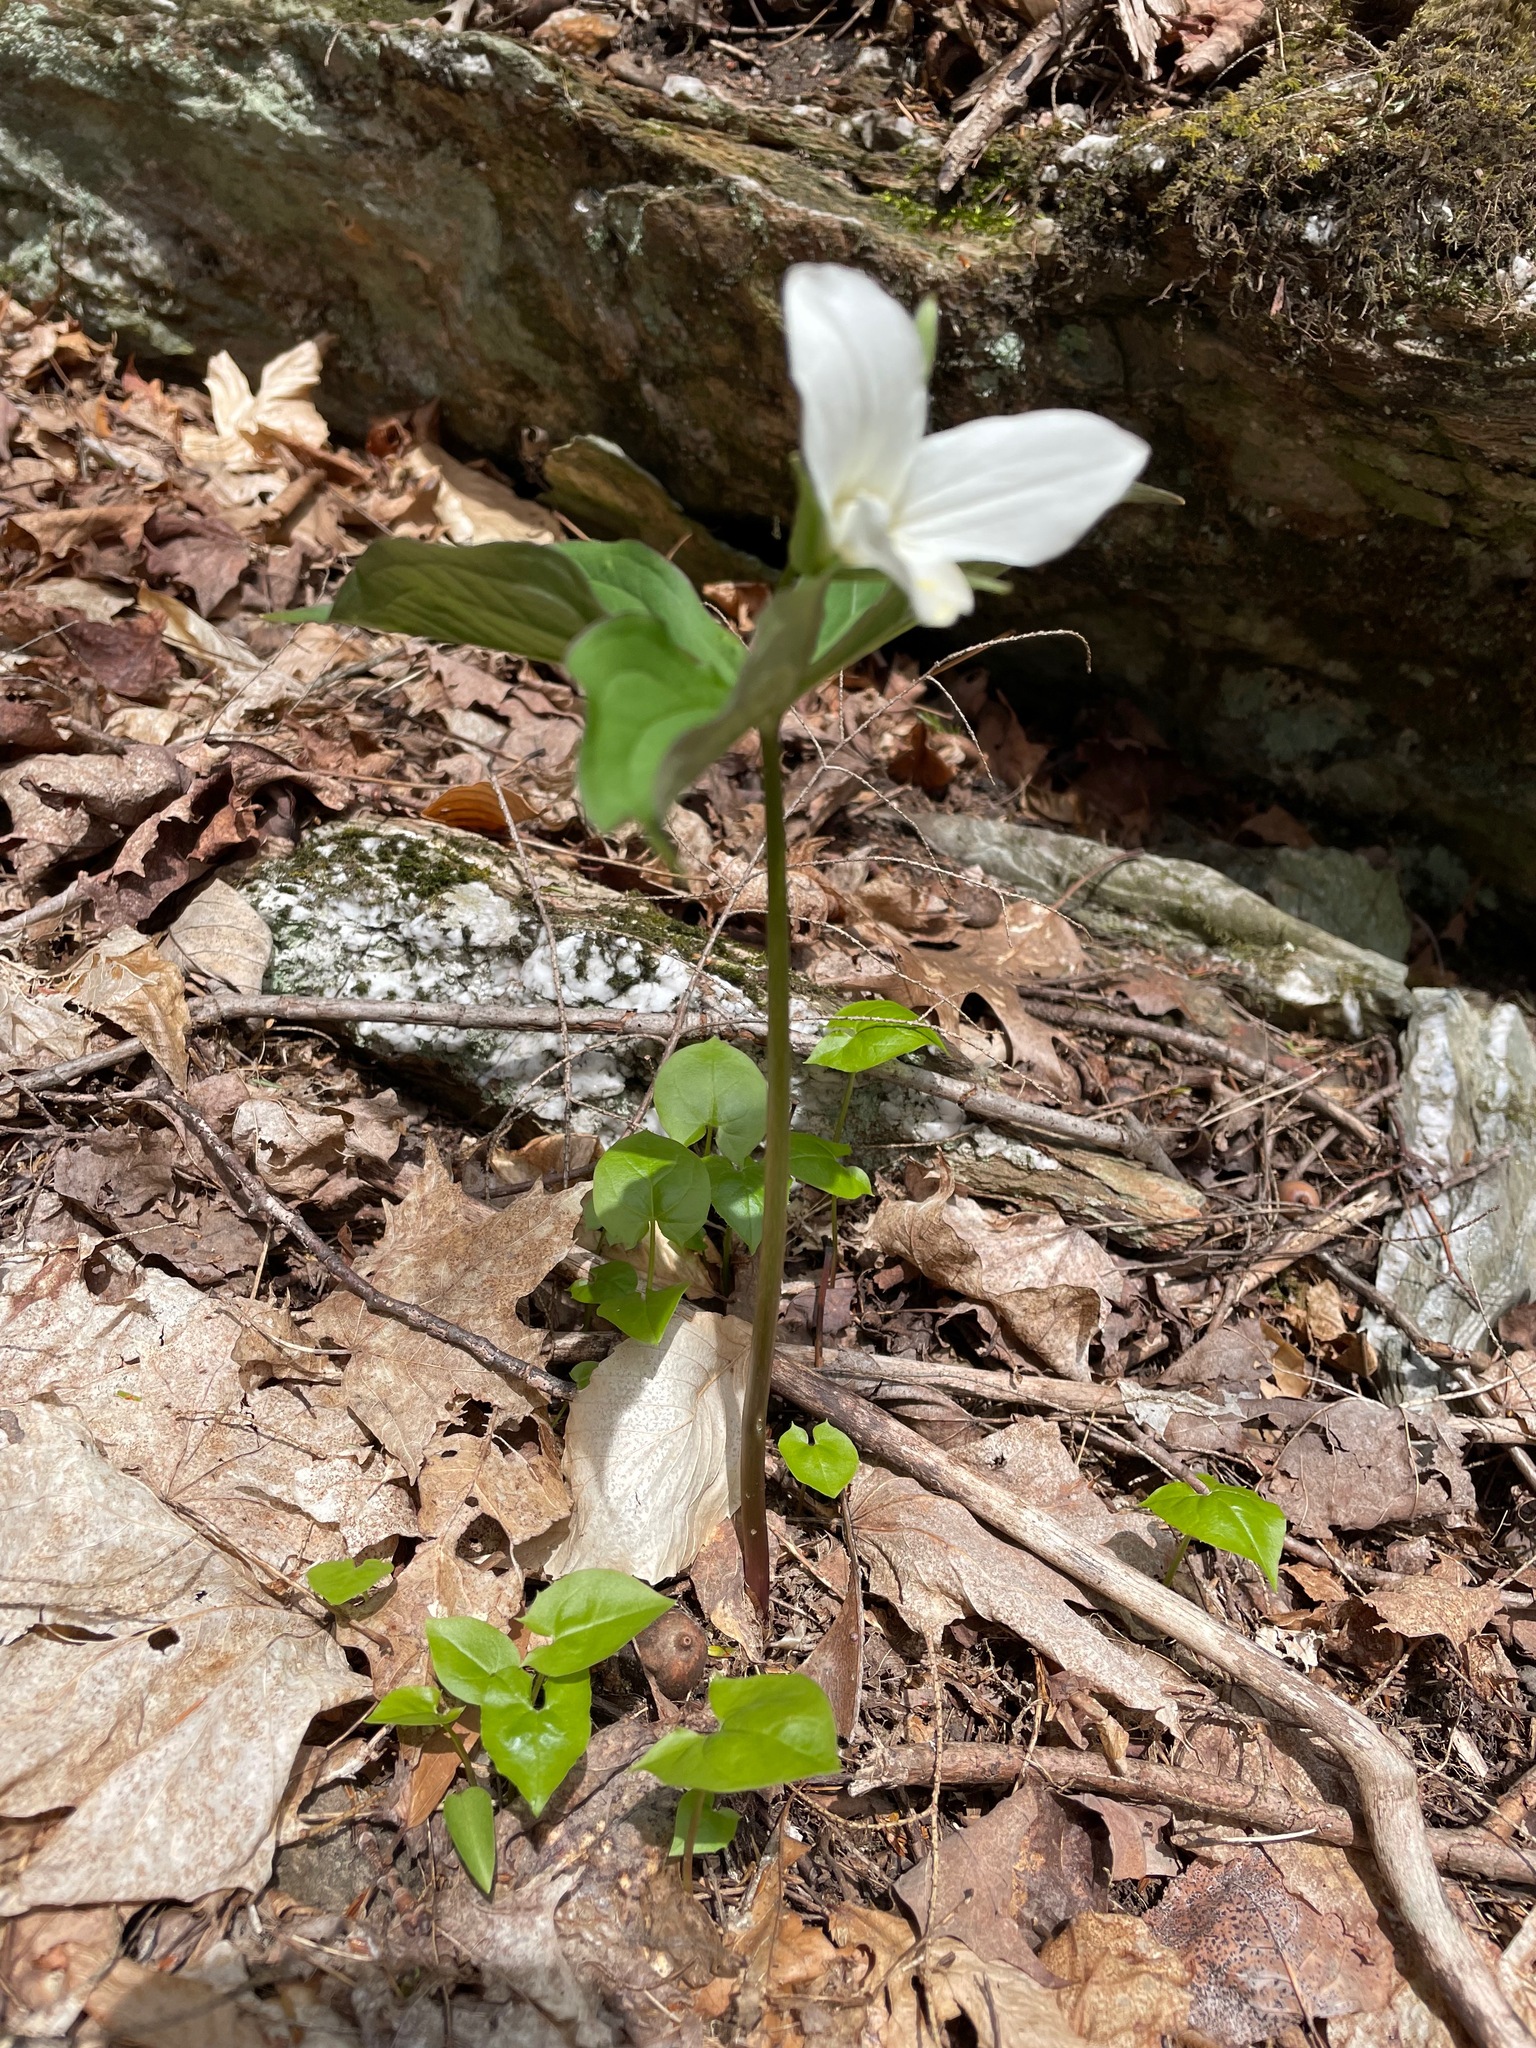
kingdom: Plantae
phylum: Tracheophyta
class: Liliopsida
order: Liliales
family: Melanthiaceae
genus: Trillium
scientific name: Trillium grandiflorum
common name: Great white trillium
